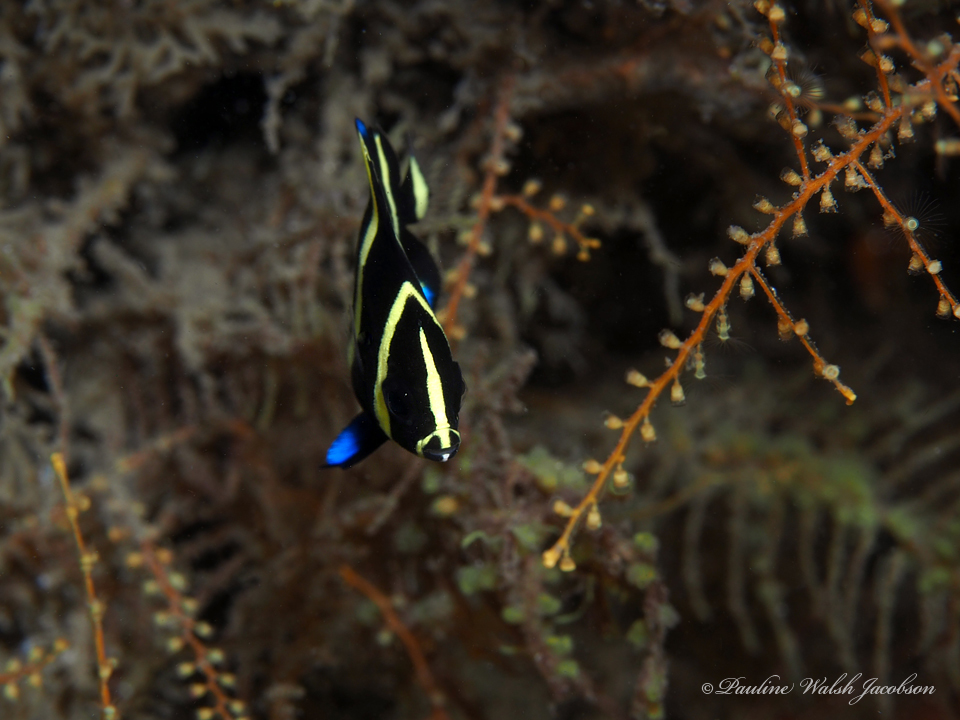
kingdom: Animalia
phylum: Chordata
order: Perciformes
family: Pomacanthidae
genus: Pomacanthus
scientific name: Pomacanthus arcuatus
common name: Gray angelfish
